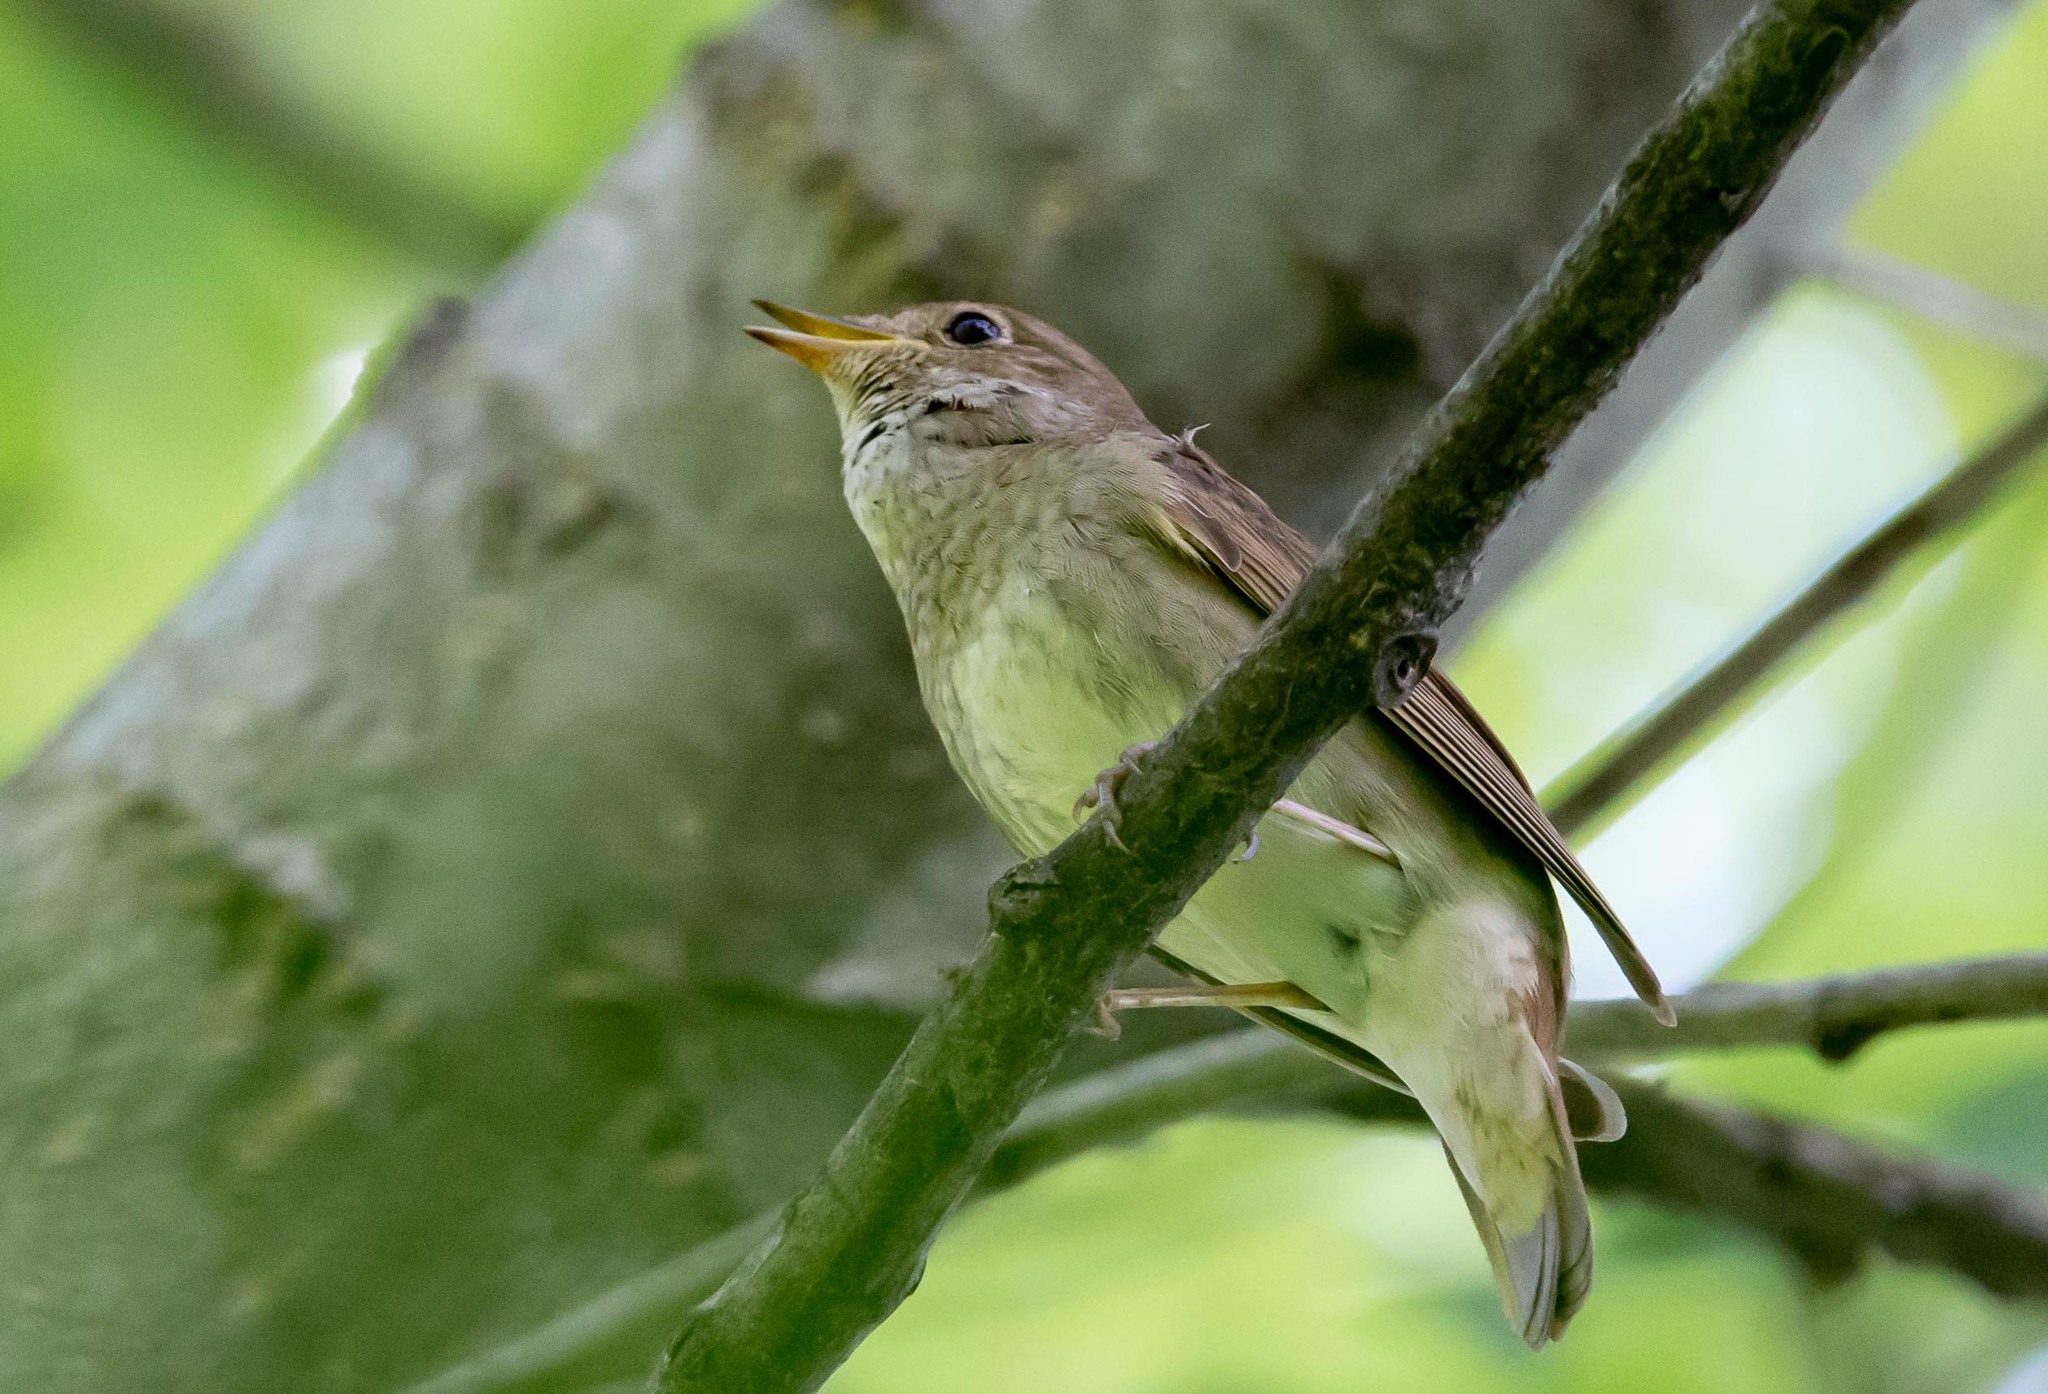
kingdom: Animalia
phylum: Chordata
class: Aves
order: Passeriformes
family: Muscicapidae
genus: Luscinia
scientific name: Luscinia luscinia
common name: Thrush nightingale
